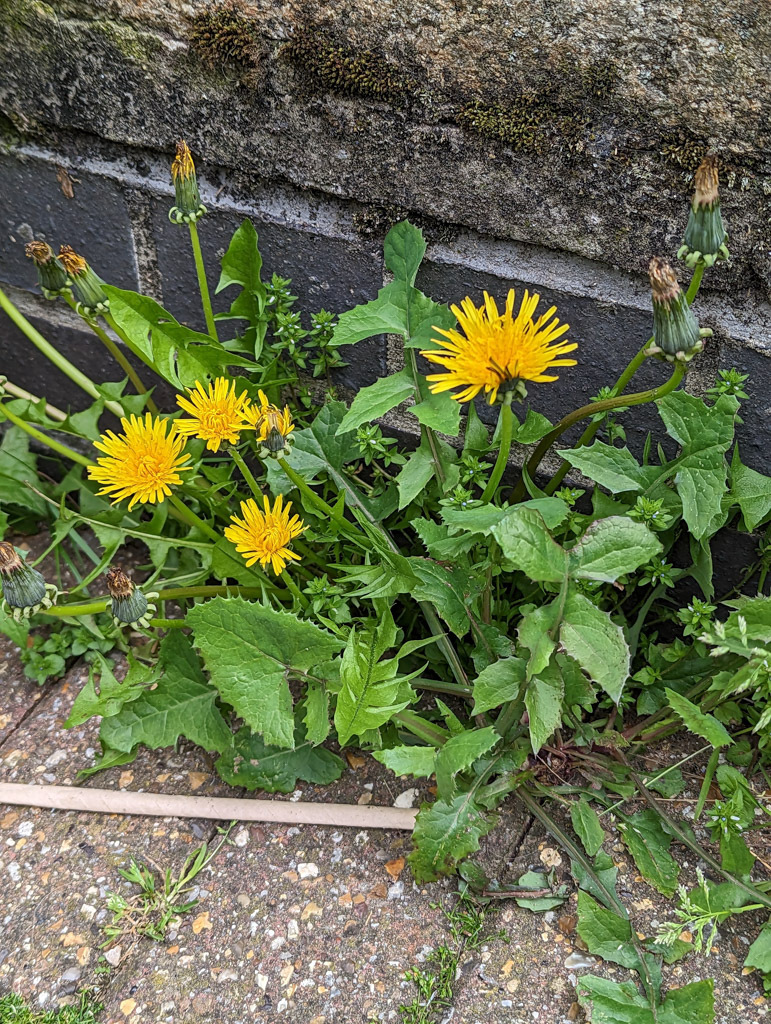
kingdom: Plantae
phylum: Tracheophyta
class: Magnoliopsida
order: Asterales
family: Asteraceae
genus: Taraxacum
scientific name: Taraxacum officinale
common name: Common dandelion
